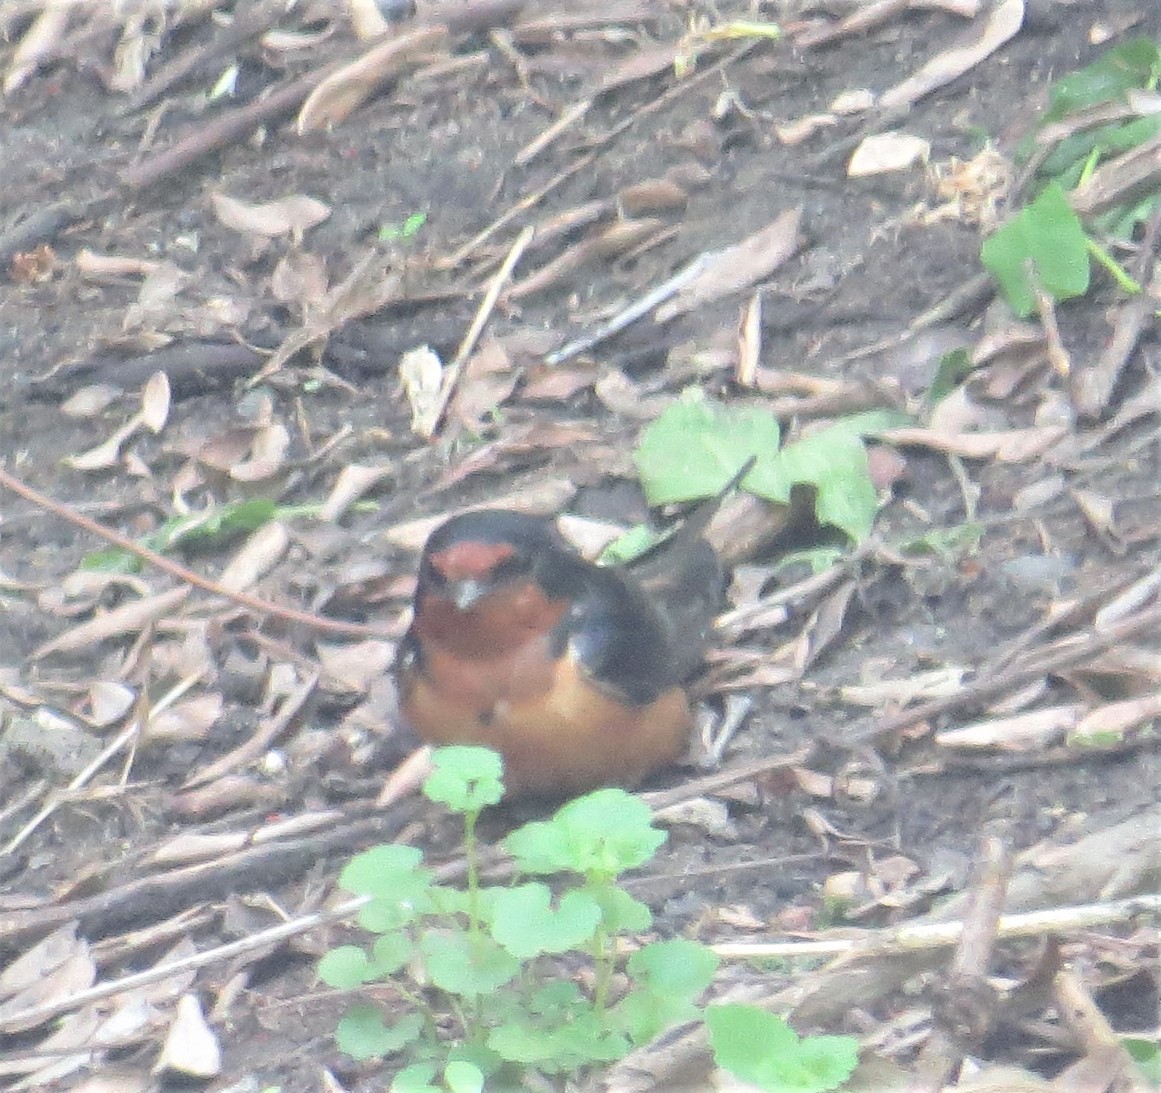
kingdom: Animalia
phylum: Chordata
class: Aves
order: Passeriformes
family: Hirundinidae
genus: Hirundo
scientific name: Hirundo rustica
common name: Barn swallow
